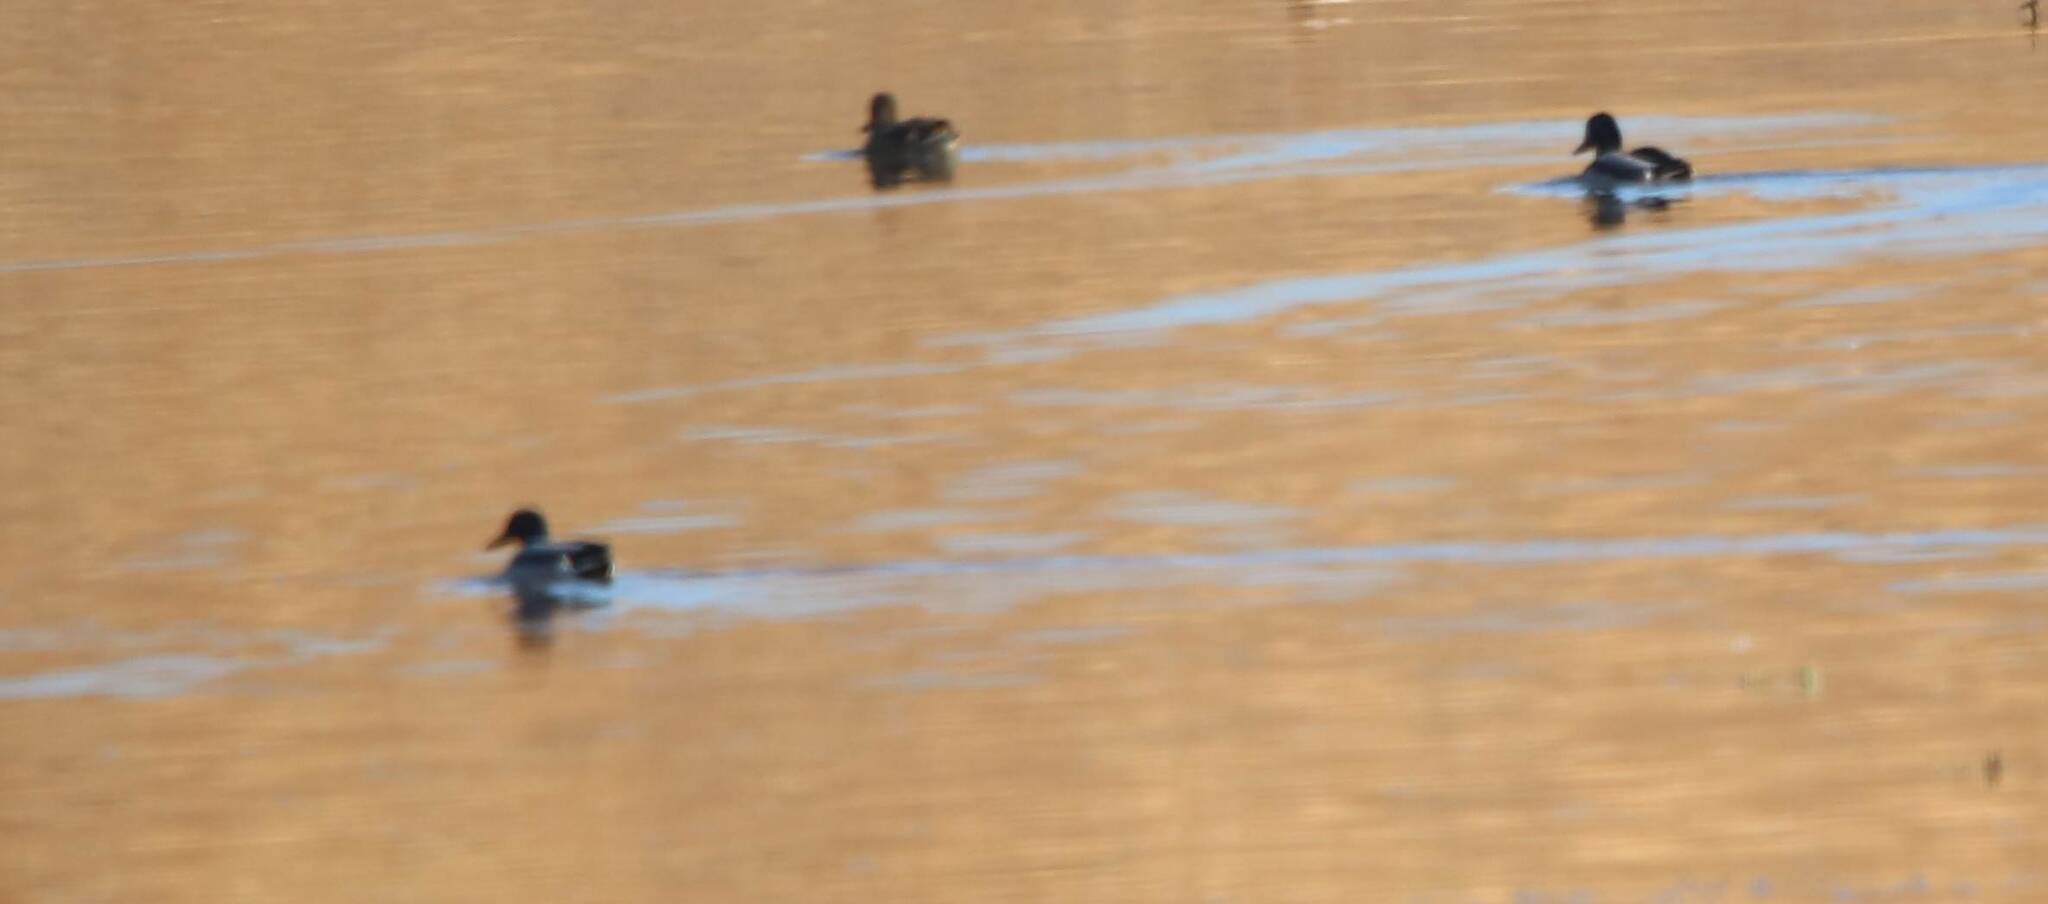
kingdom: Animalia
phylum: Chordata
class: Aves
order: Anseriformes
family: Anatidae
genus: Anas
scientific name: Anas platyrhynchos
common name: Mallard
